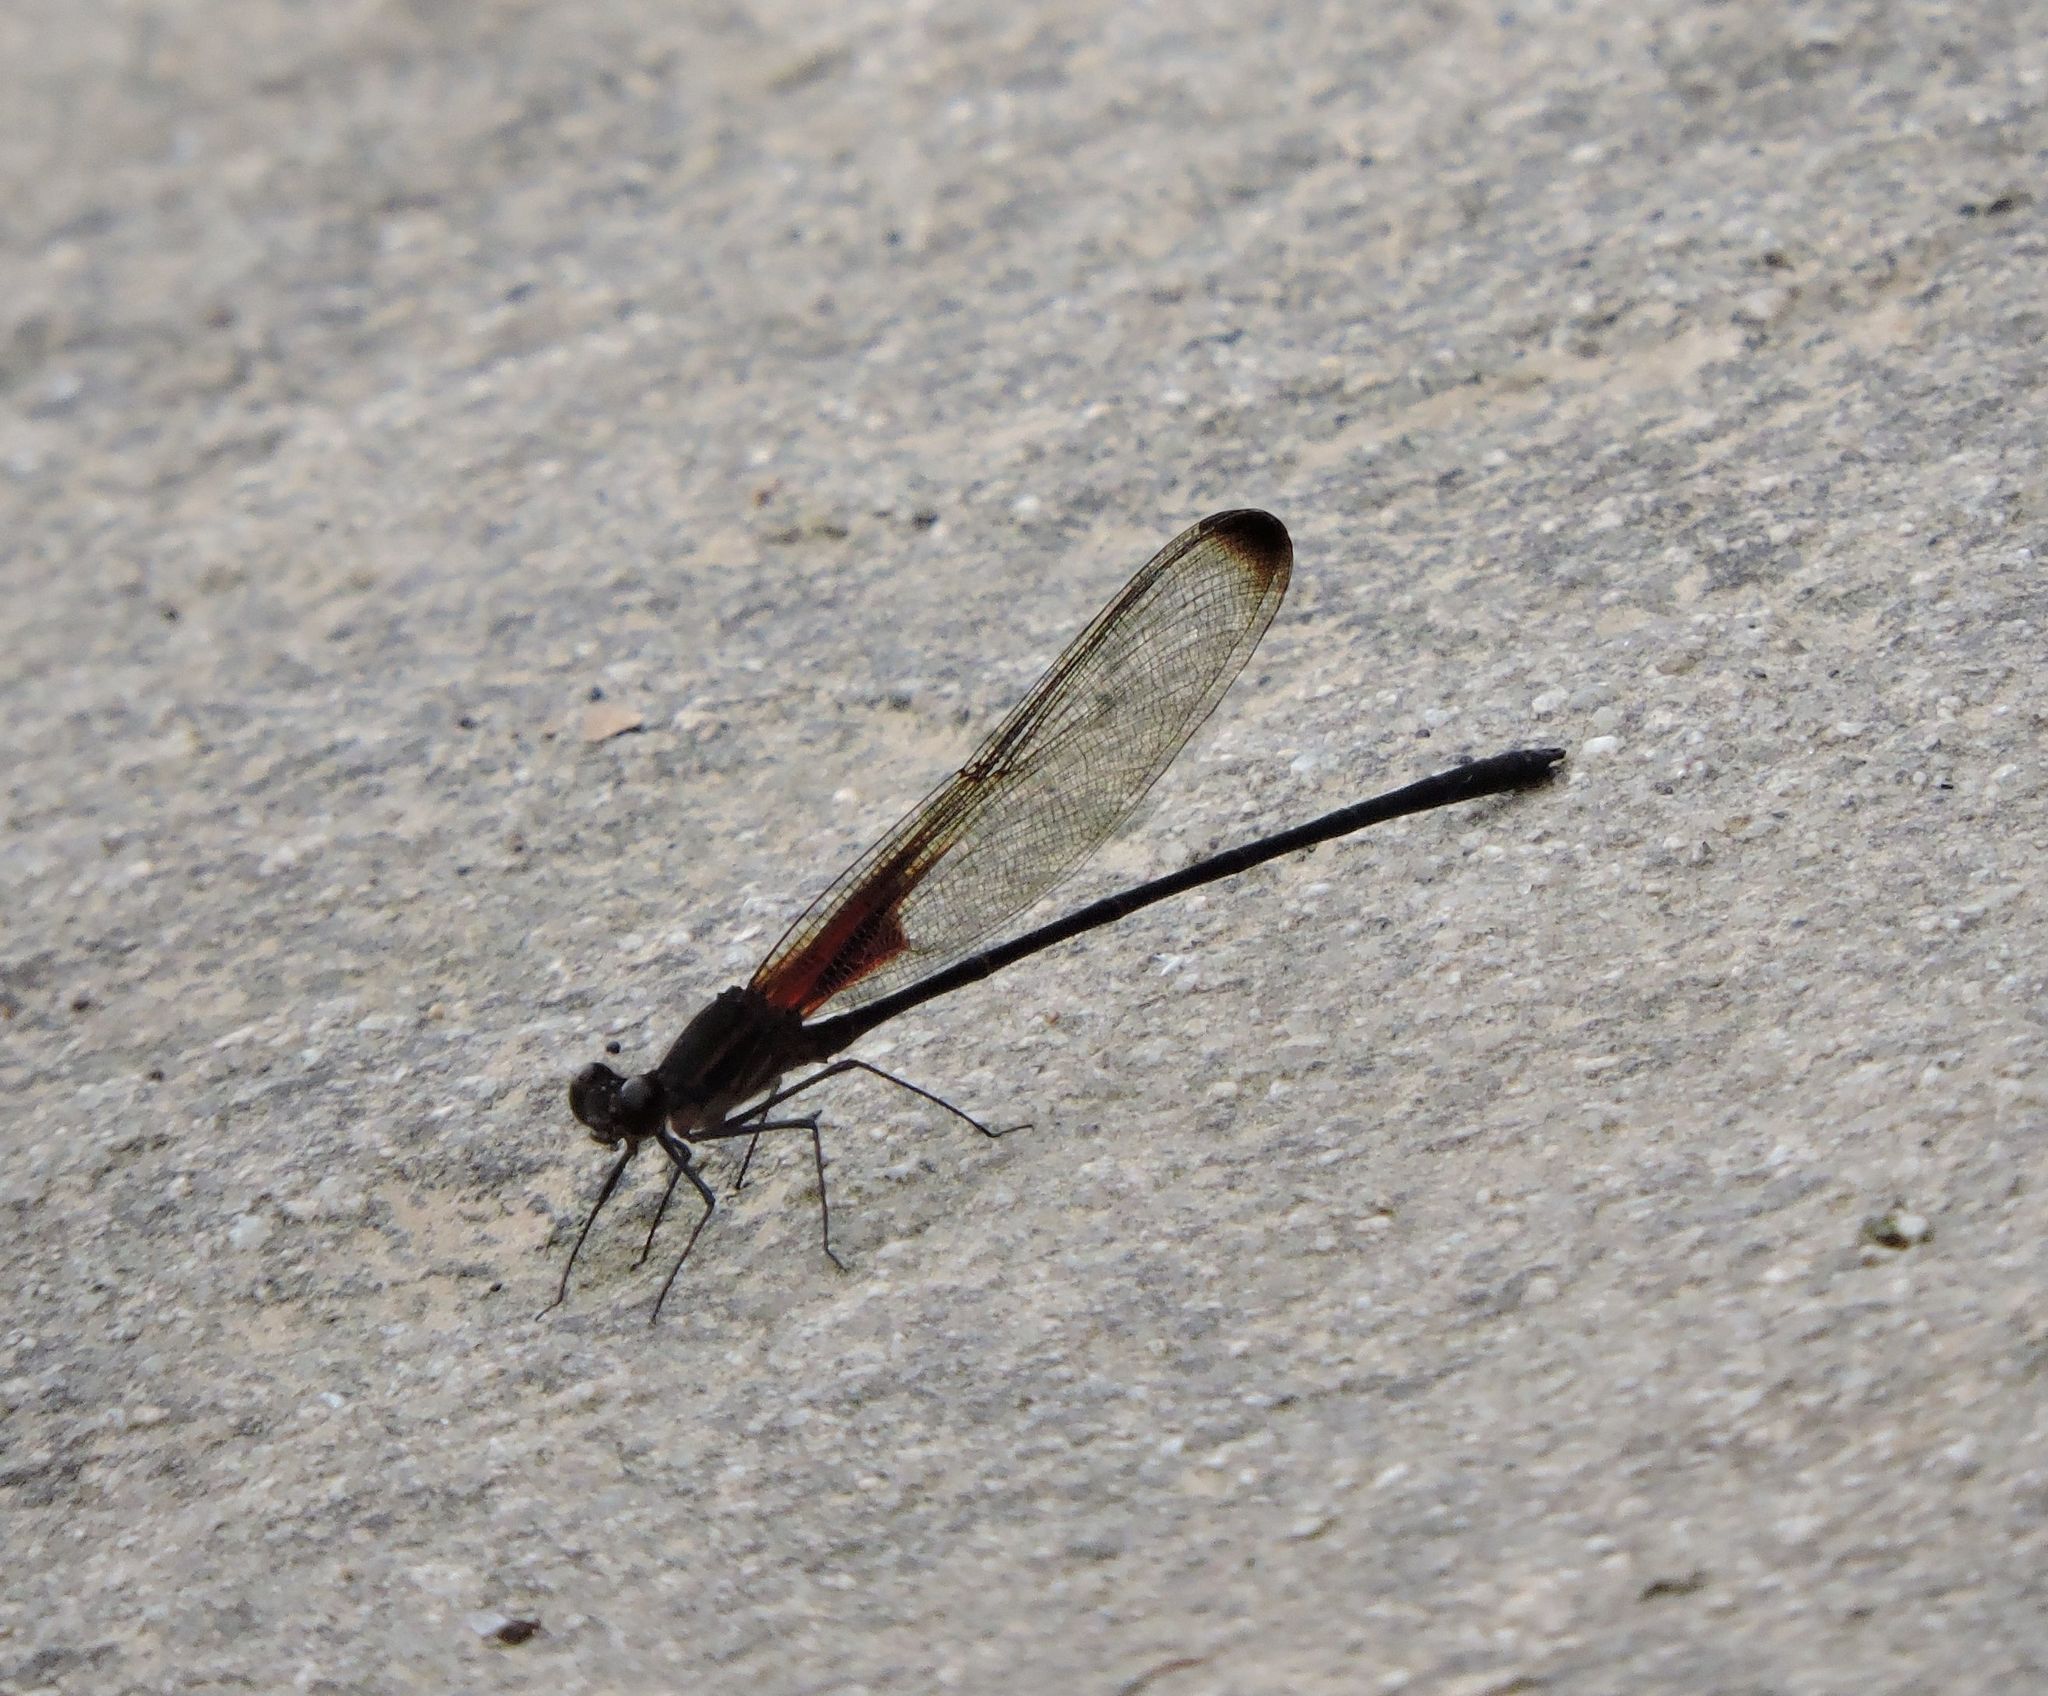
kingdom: Animalia
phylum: Arthropoda
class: Insecta
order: Odonata
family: Calopterygidae
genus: Hetaerina
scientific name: Hetaerina titia
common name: Smoky rubyspot
